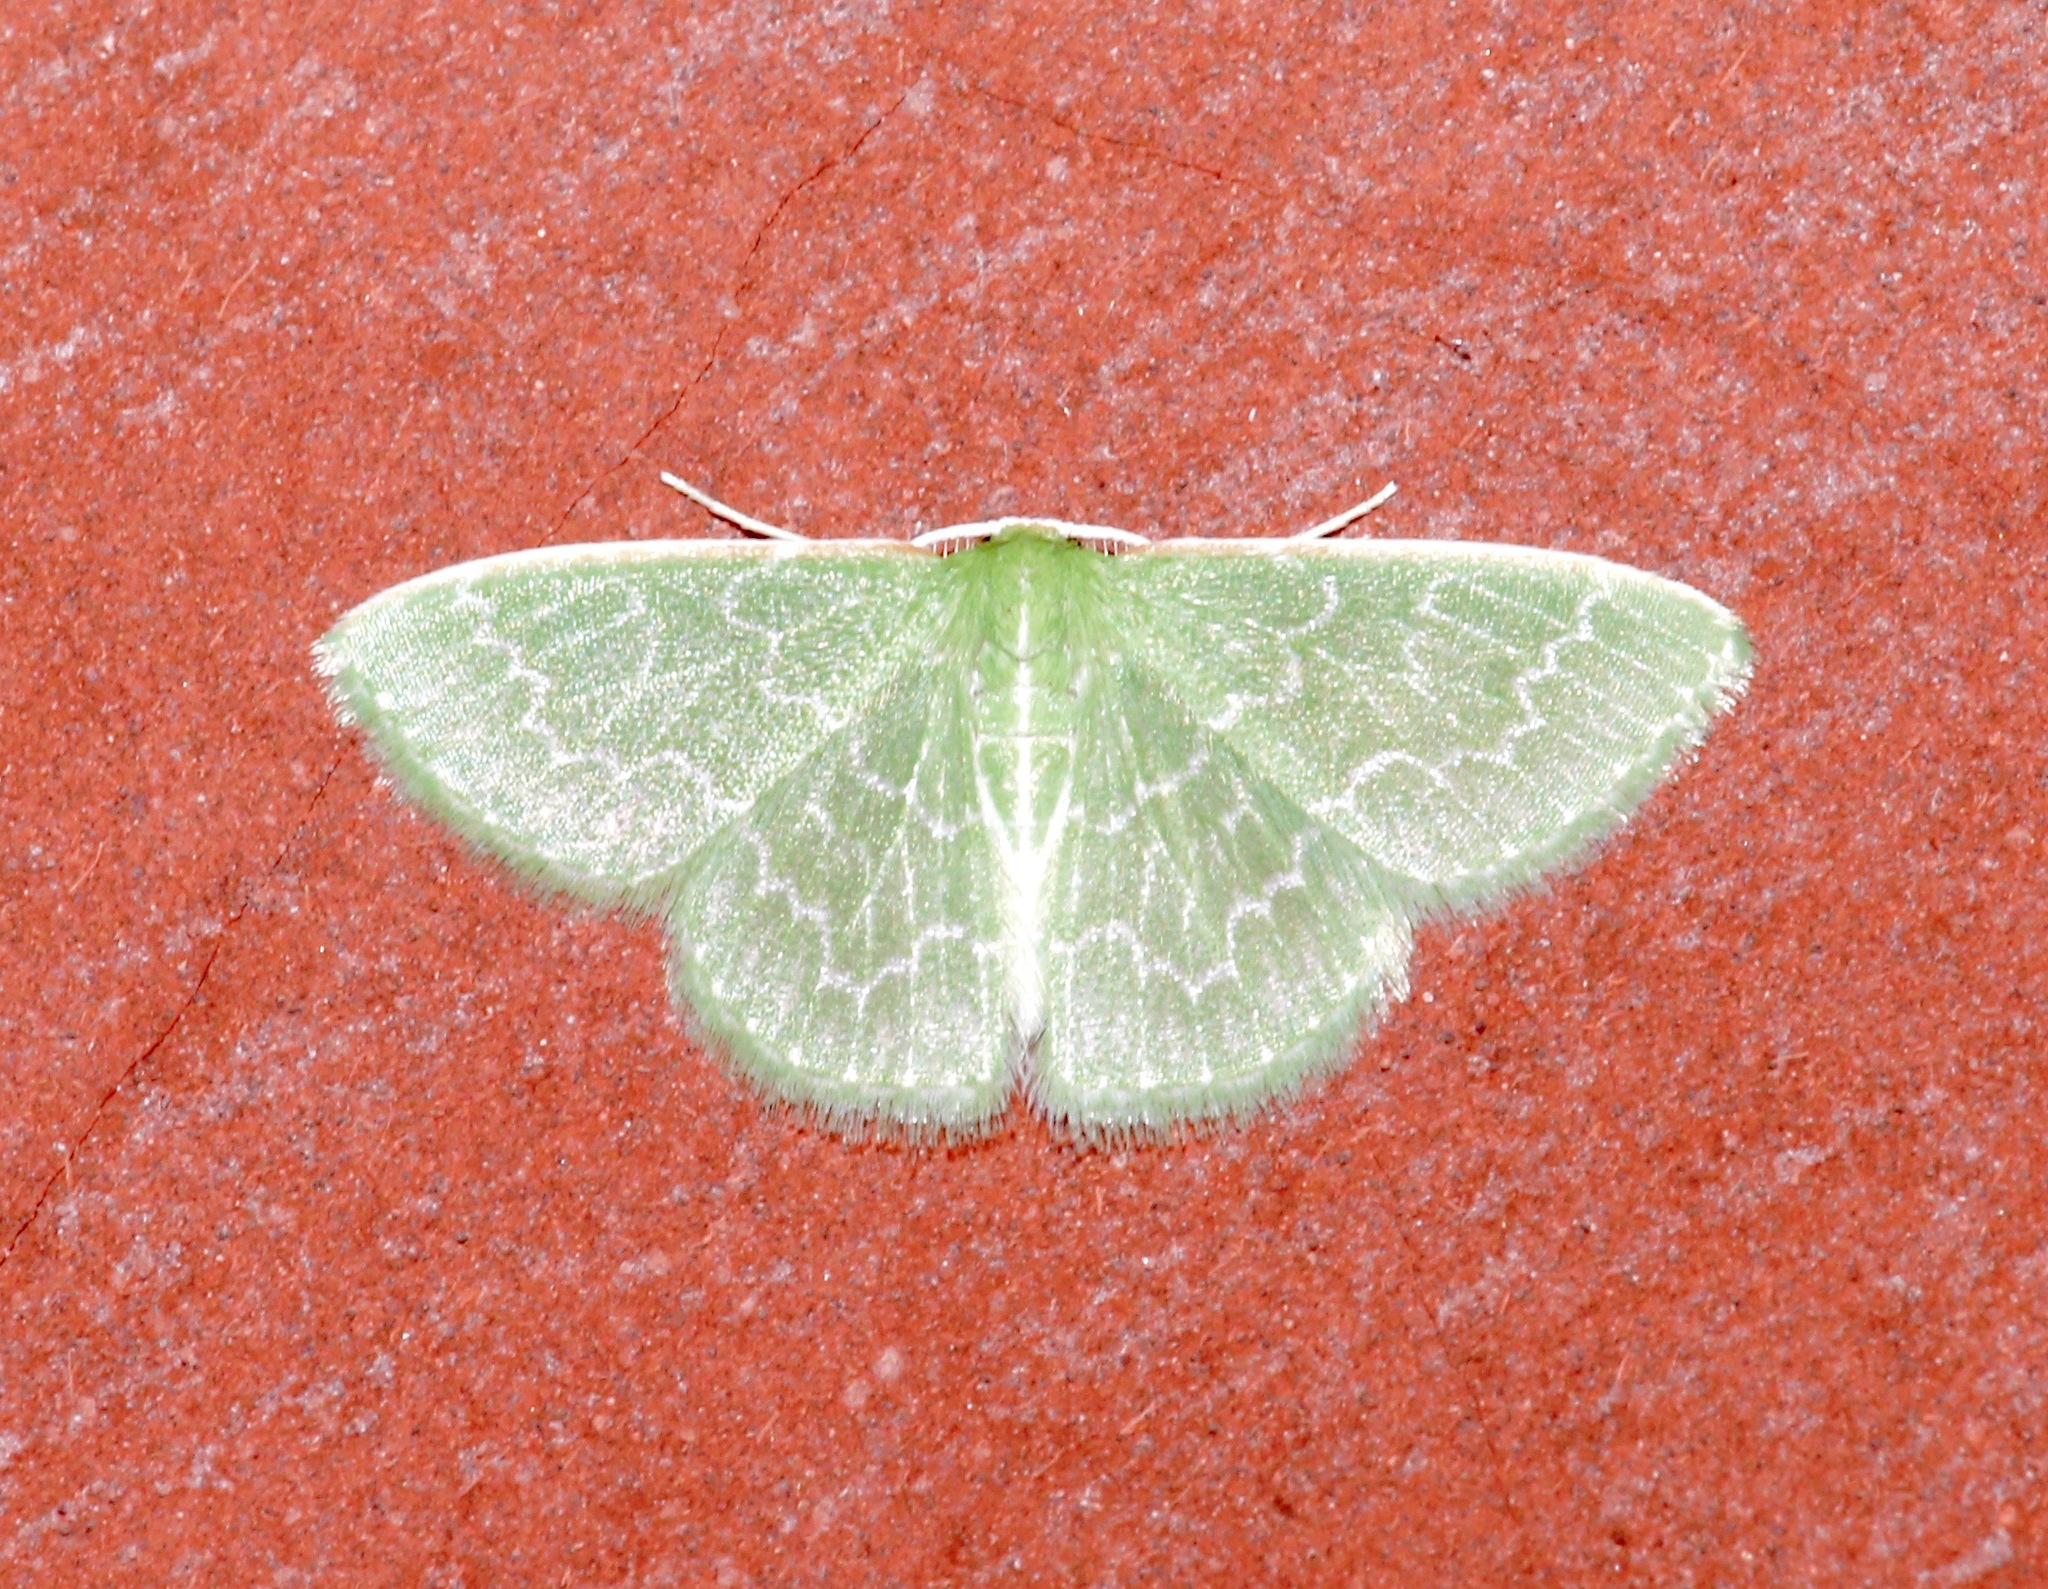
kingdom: Animalia
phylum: Arthropoda
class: Insecta
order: Lepidoptera
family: Geometridae
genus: Synchlora
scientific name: Synchlora frondaria
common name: Southern emerald
